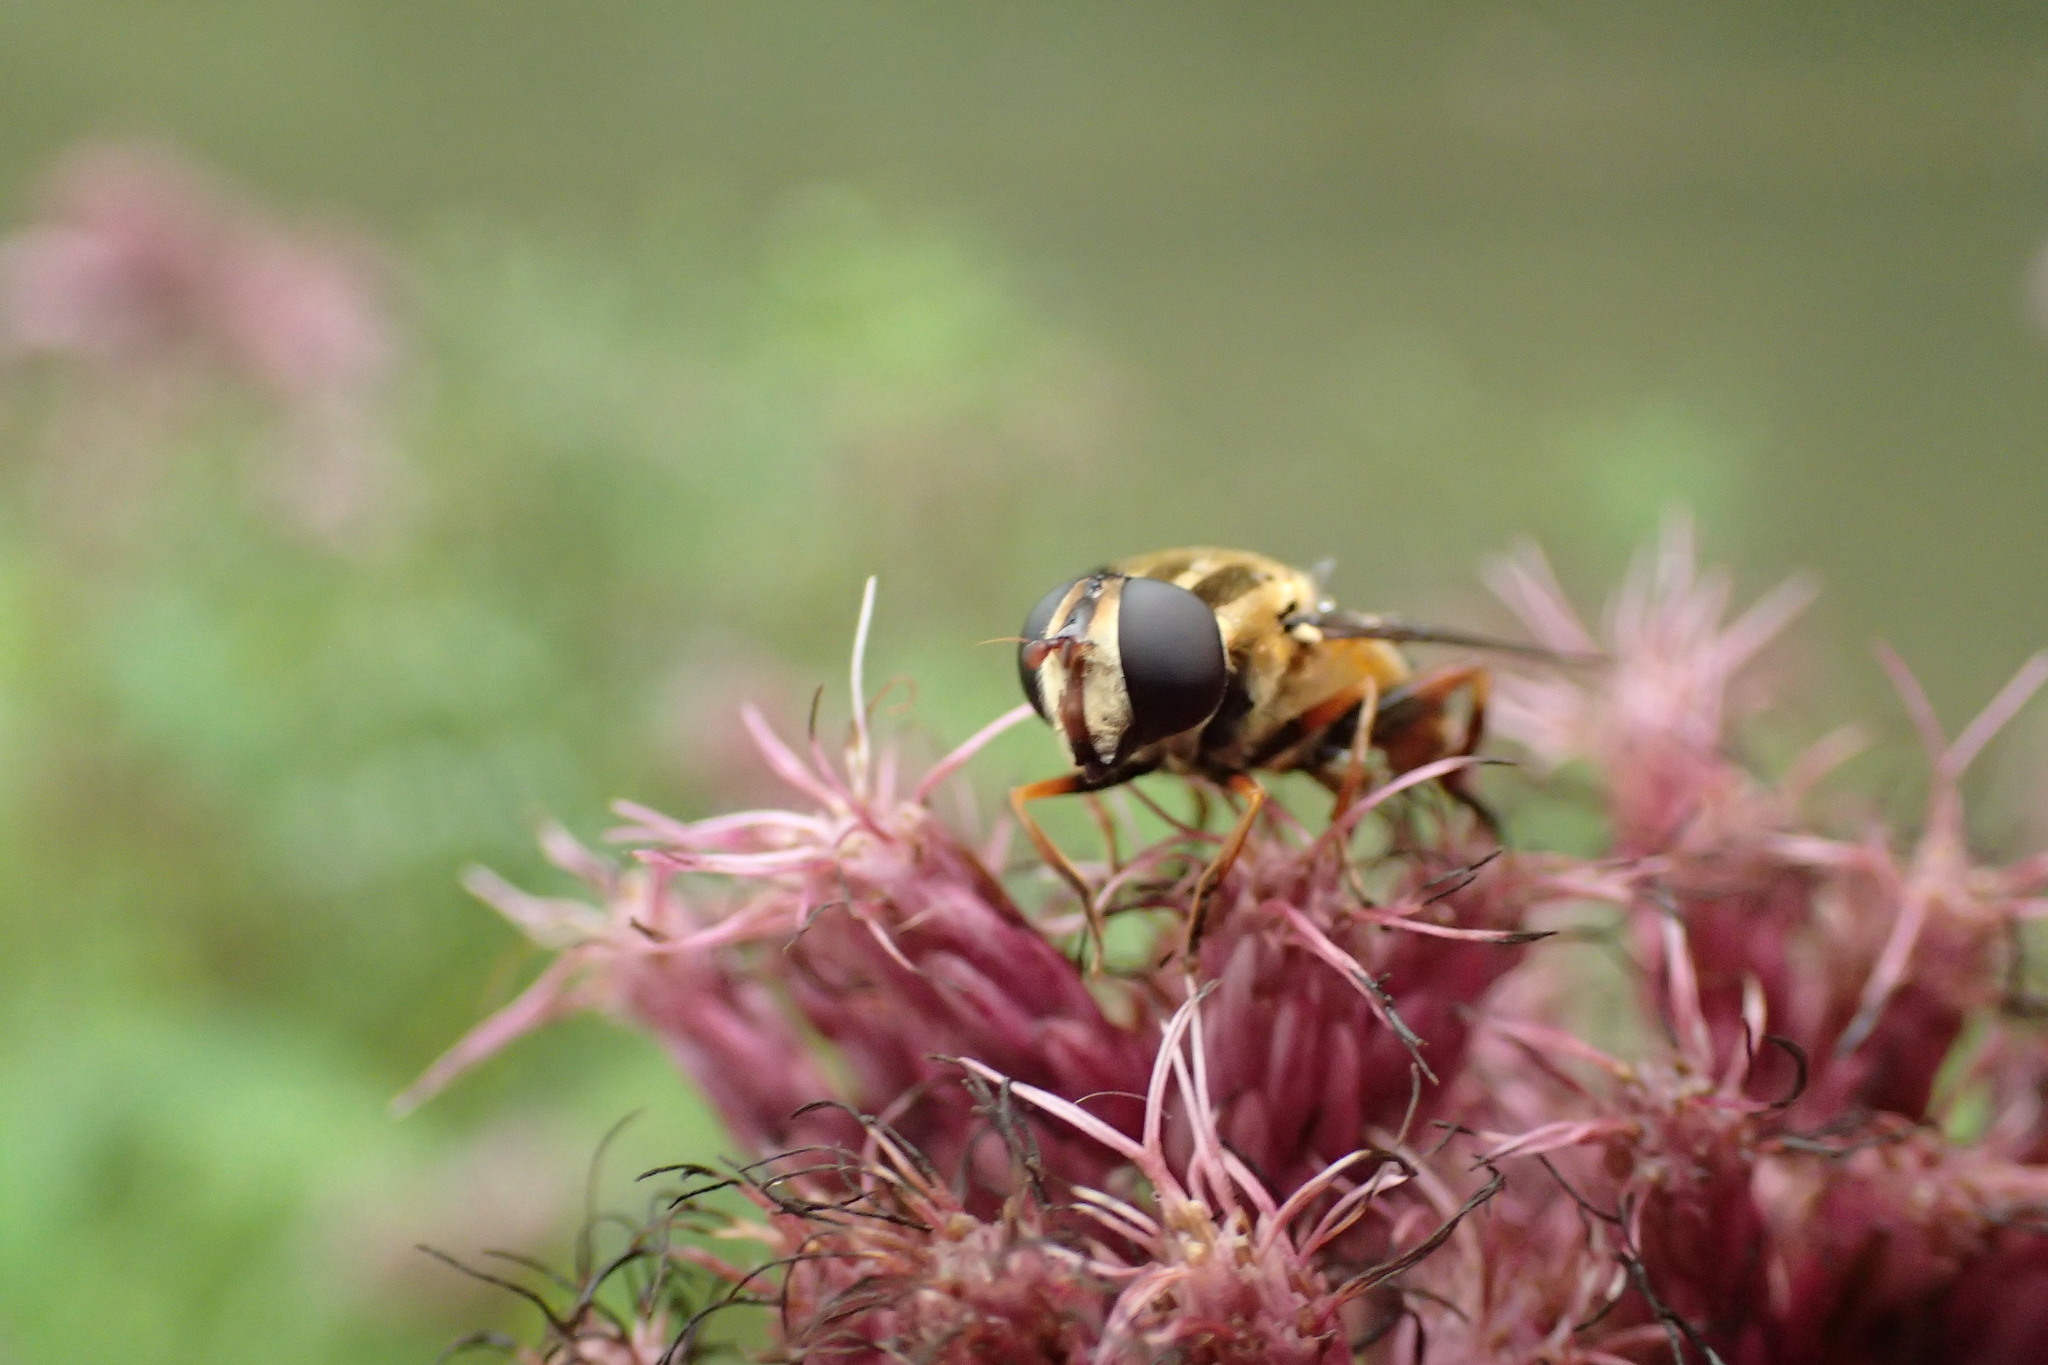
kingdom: Animalia
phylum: Arthropoda
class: Insecta
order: Diptera
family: Syrphidae
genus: Helophilus
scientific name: Helophilus fasciatus
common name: Narrow-headed marsh fly
